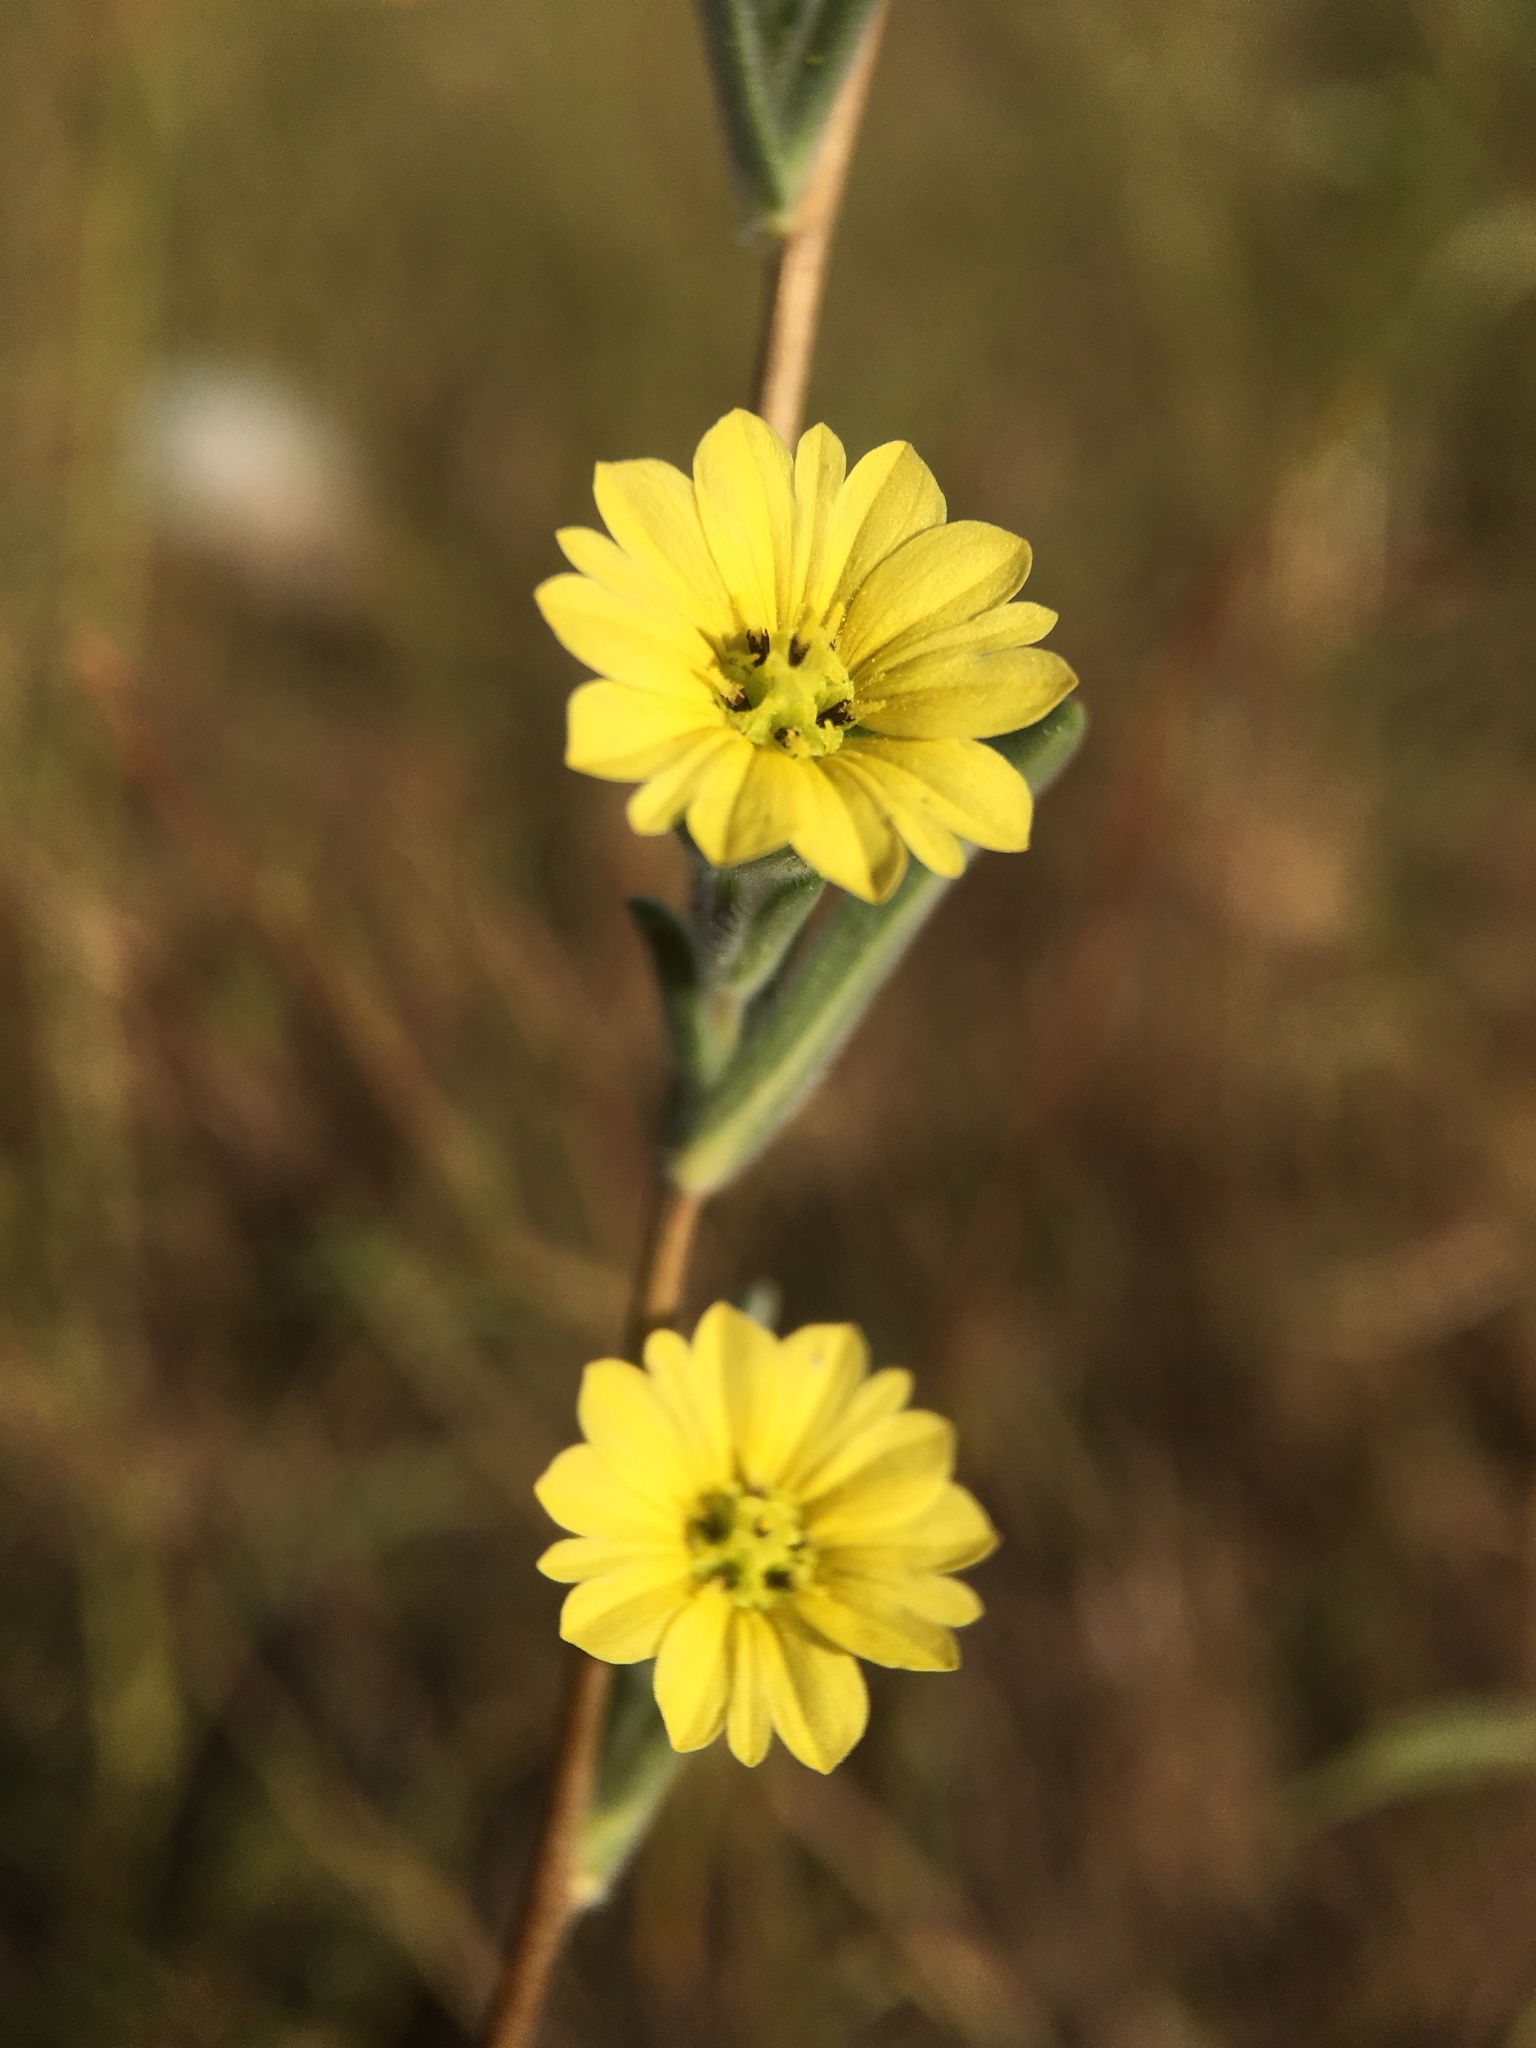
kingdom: Plantae
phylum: Tracheophyta
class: Magnoliopsida
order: Asterales
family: Asteraceae
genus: Lagophylla
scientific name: Lagophylla ramosissima
